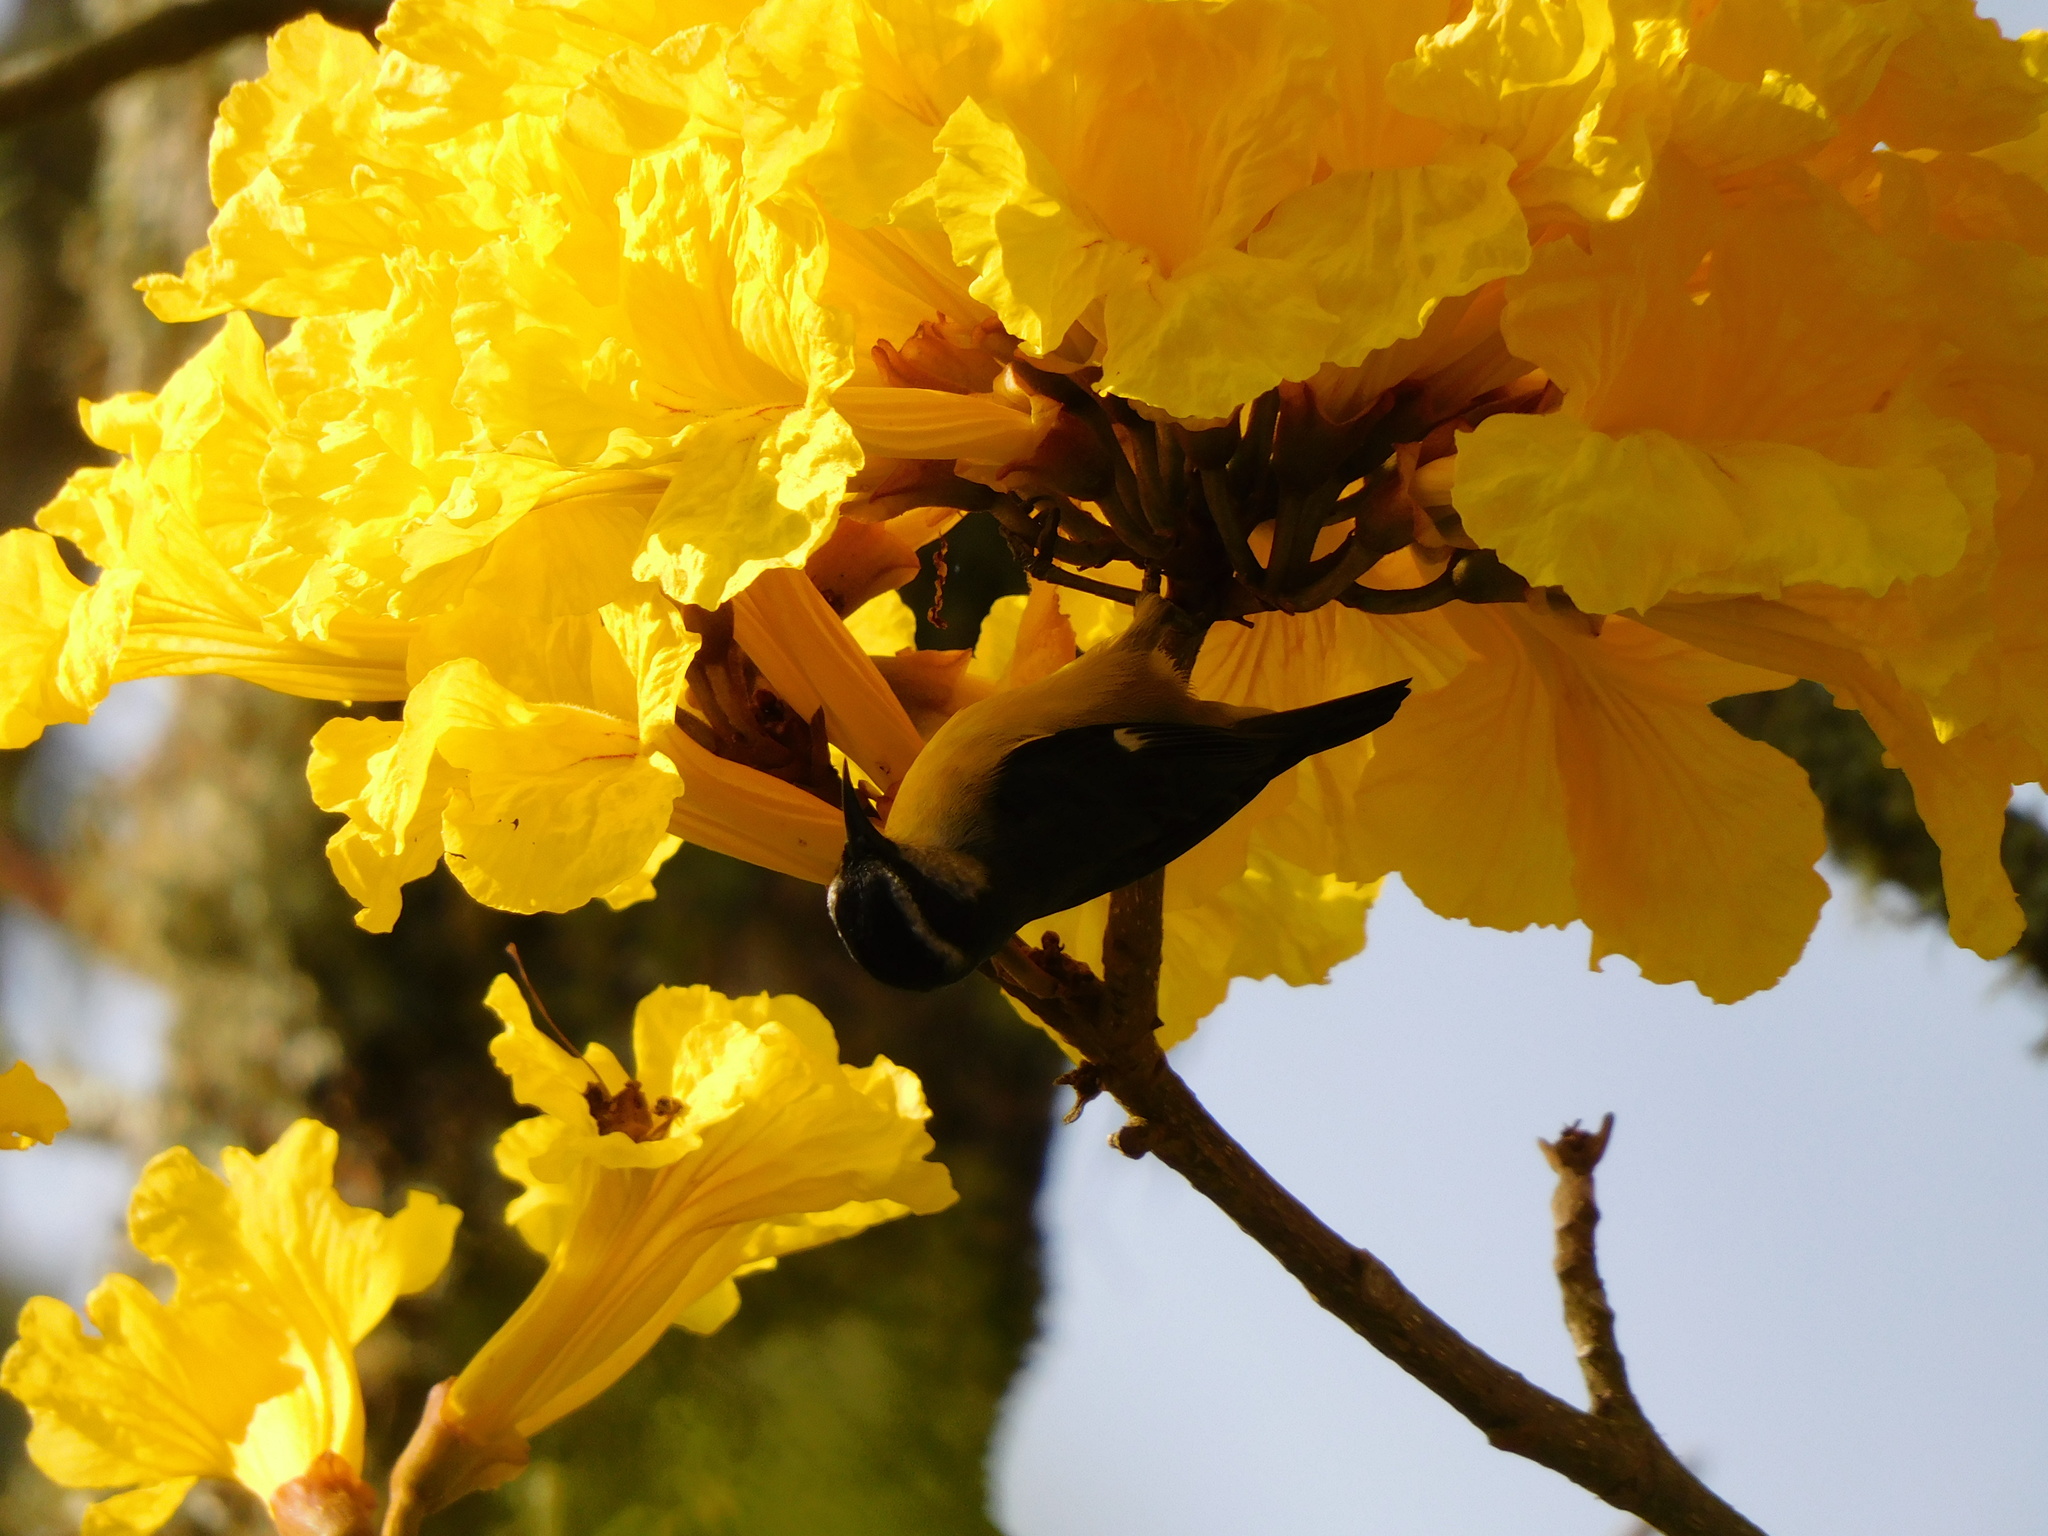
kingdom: Animalia
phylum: Chordata
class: Aves
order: Passeriformes
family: Thraupidae
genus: Coereba
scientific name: Coereba flaveola
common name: Bananaquit
